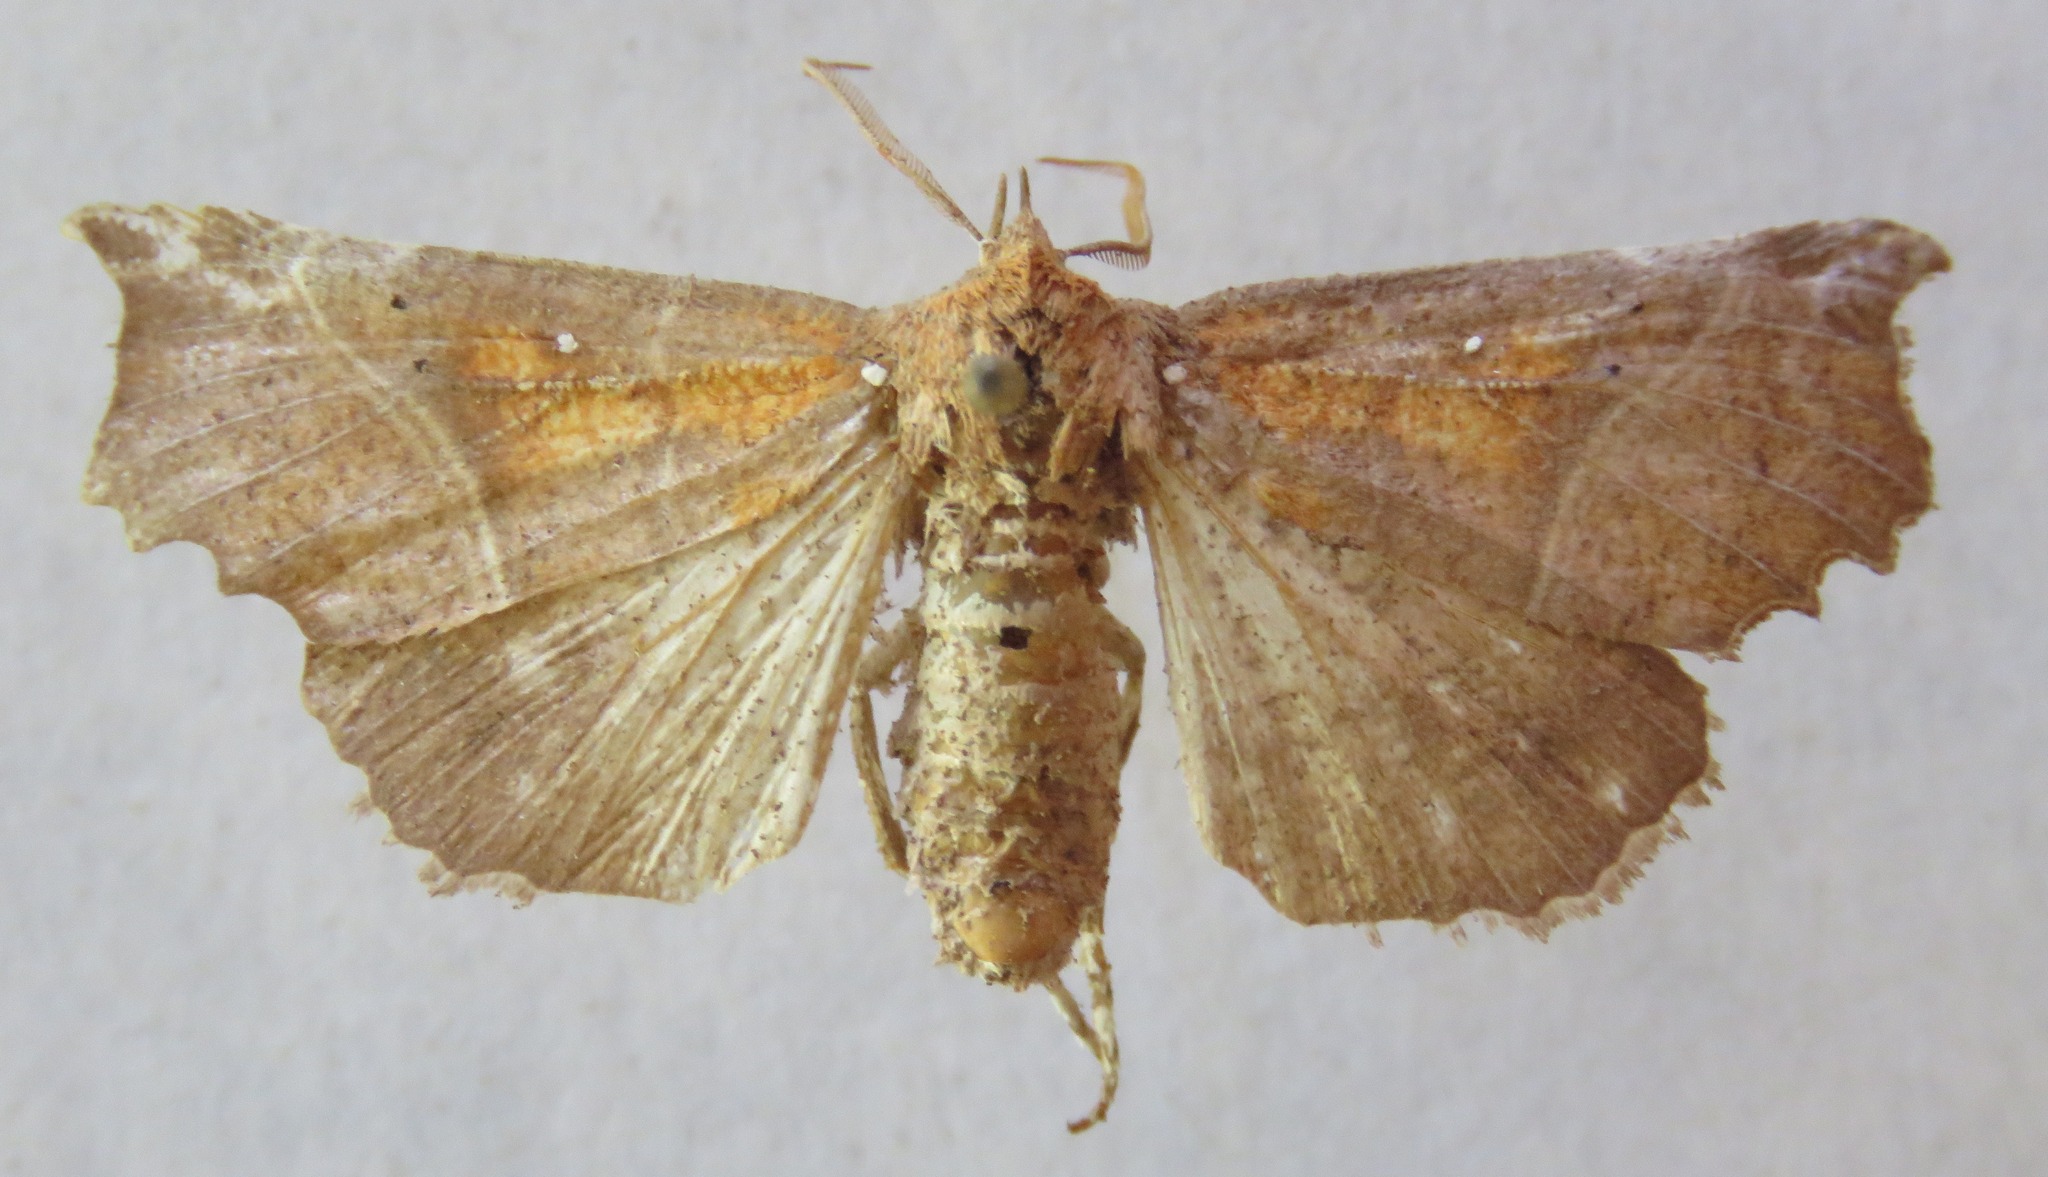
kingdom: Animalia
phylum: Arthropoda
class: Insecta
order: Lepidoptera
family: Erebidae
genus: Scoliopteryx
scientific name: Scoliopteryx libatrix
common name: Herald
